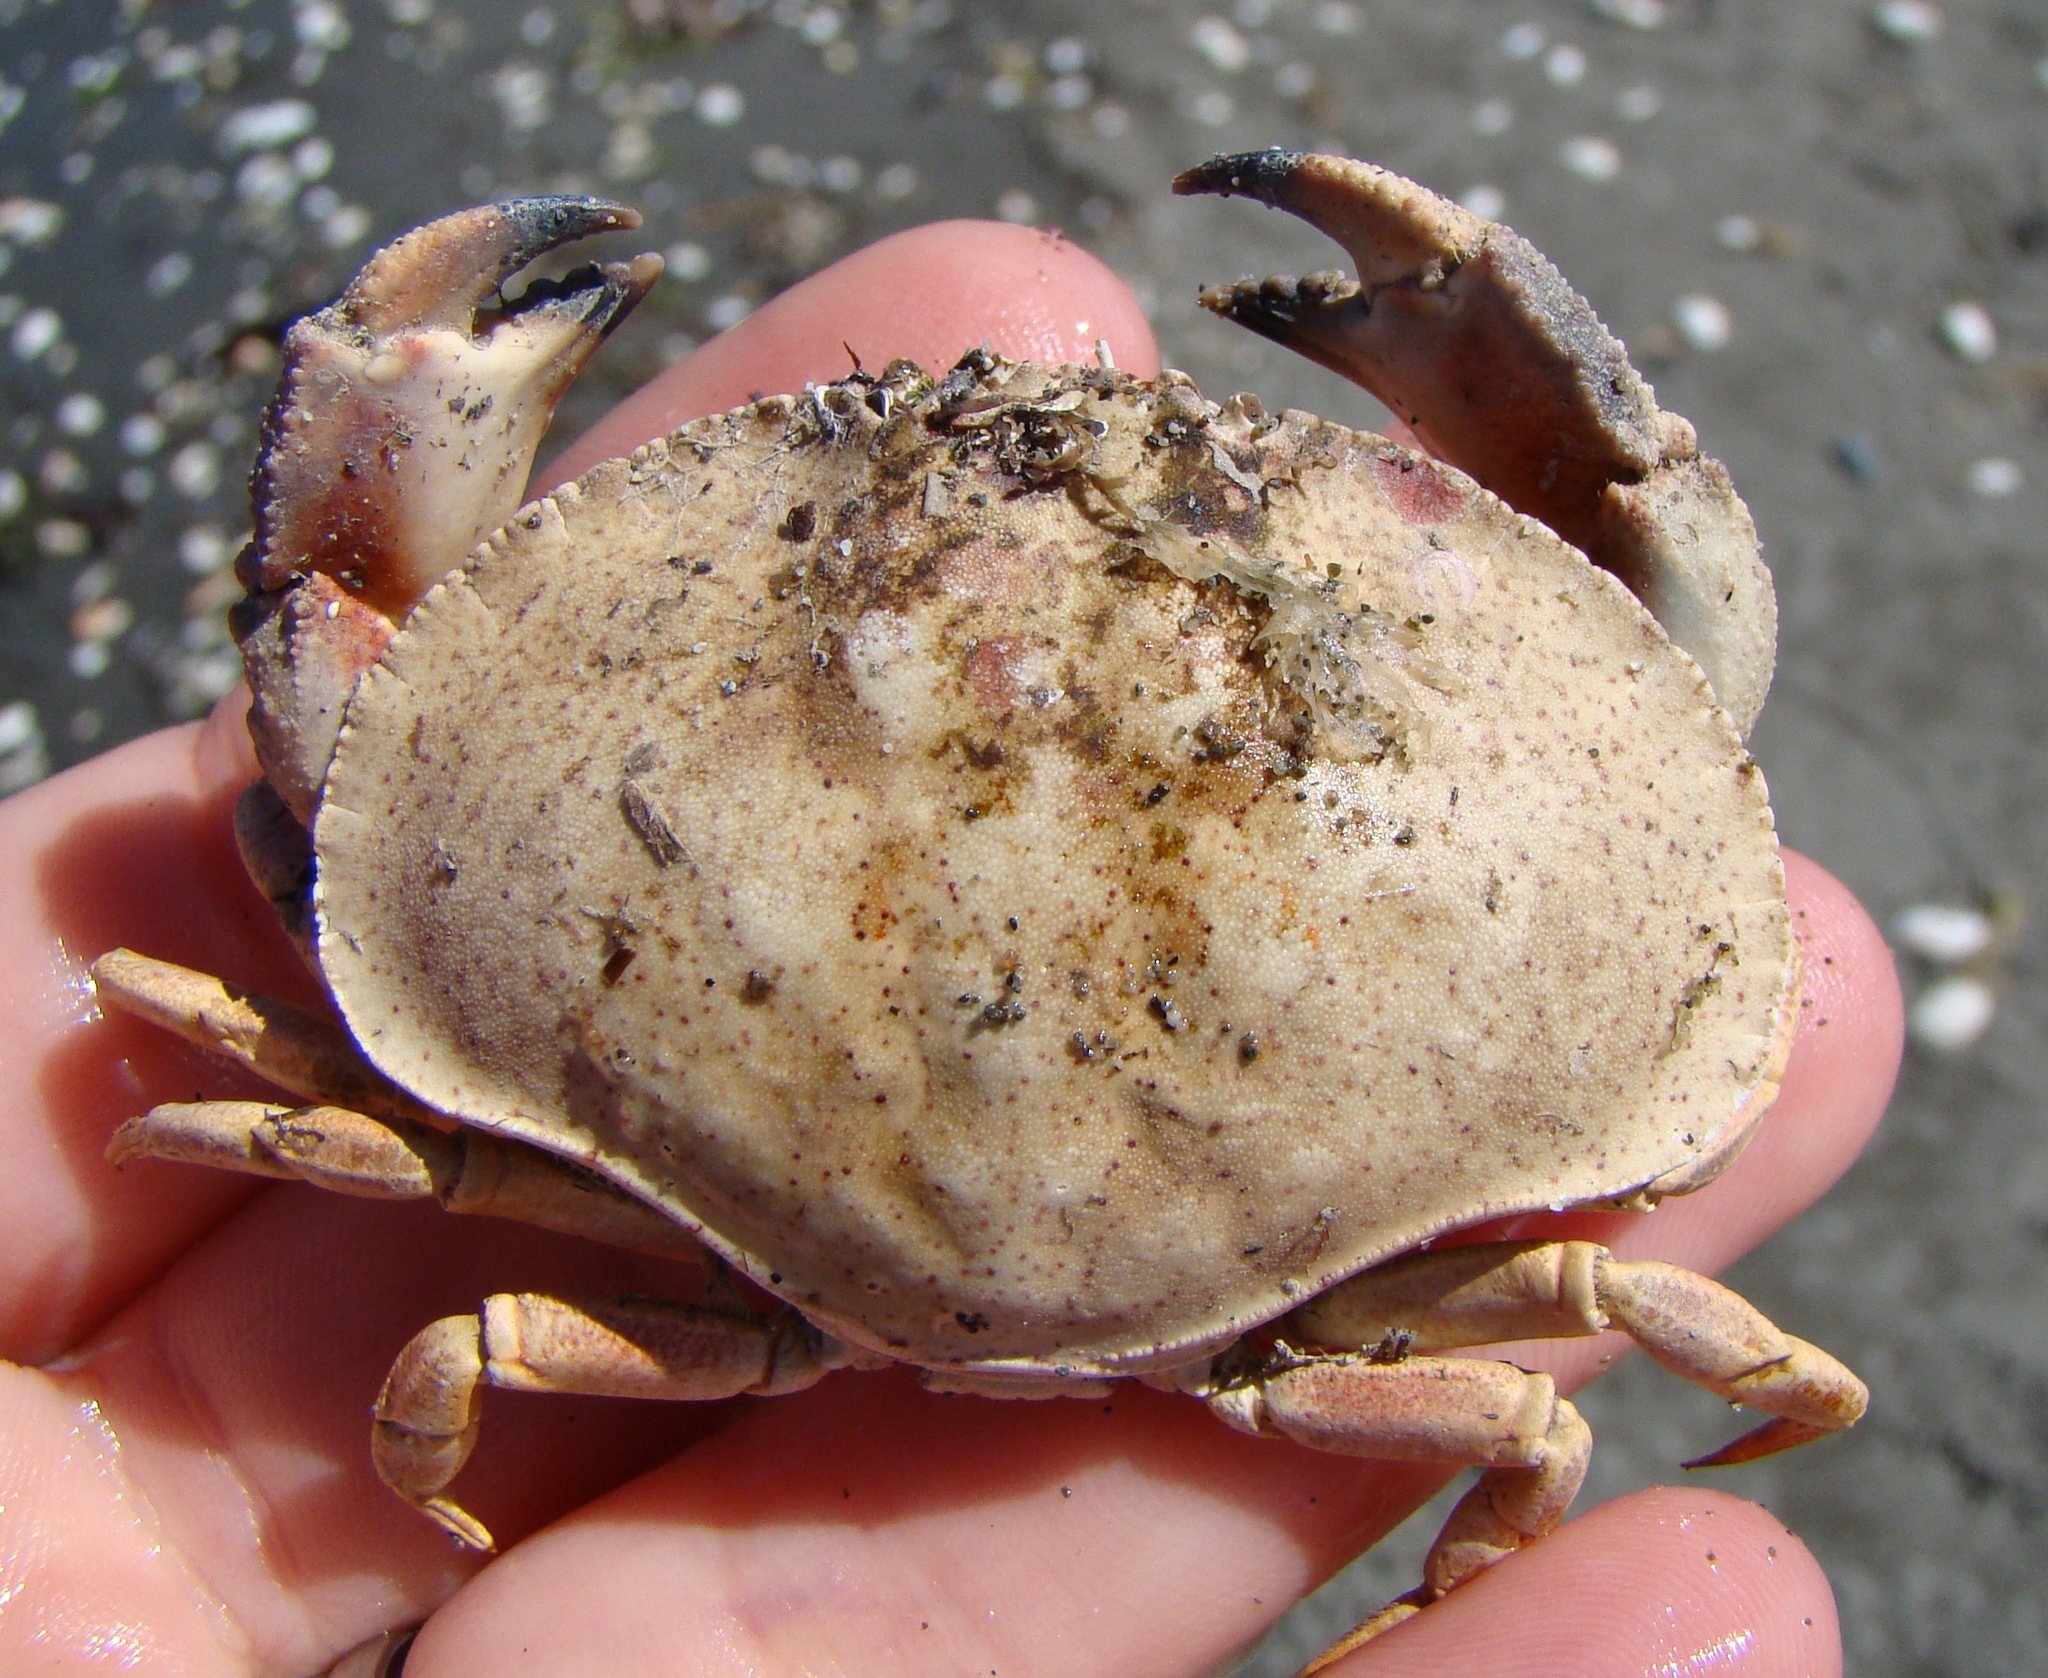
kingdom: Animalia
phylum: Arthropoda
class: Malacostraca
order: Decapoda
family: Cancridae
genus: Metacarcinus
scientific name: Metacarcinus novaezelandiae
